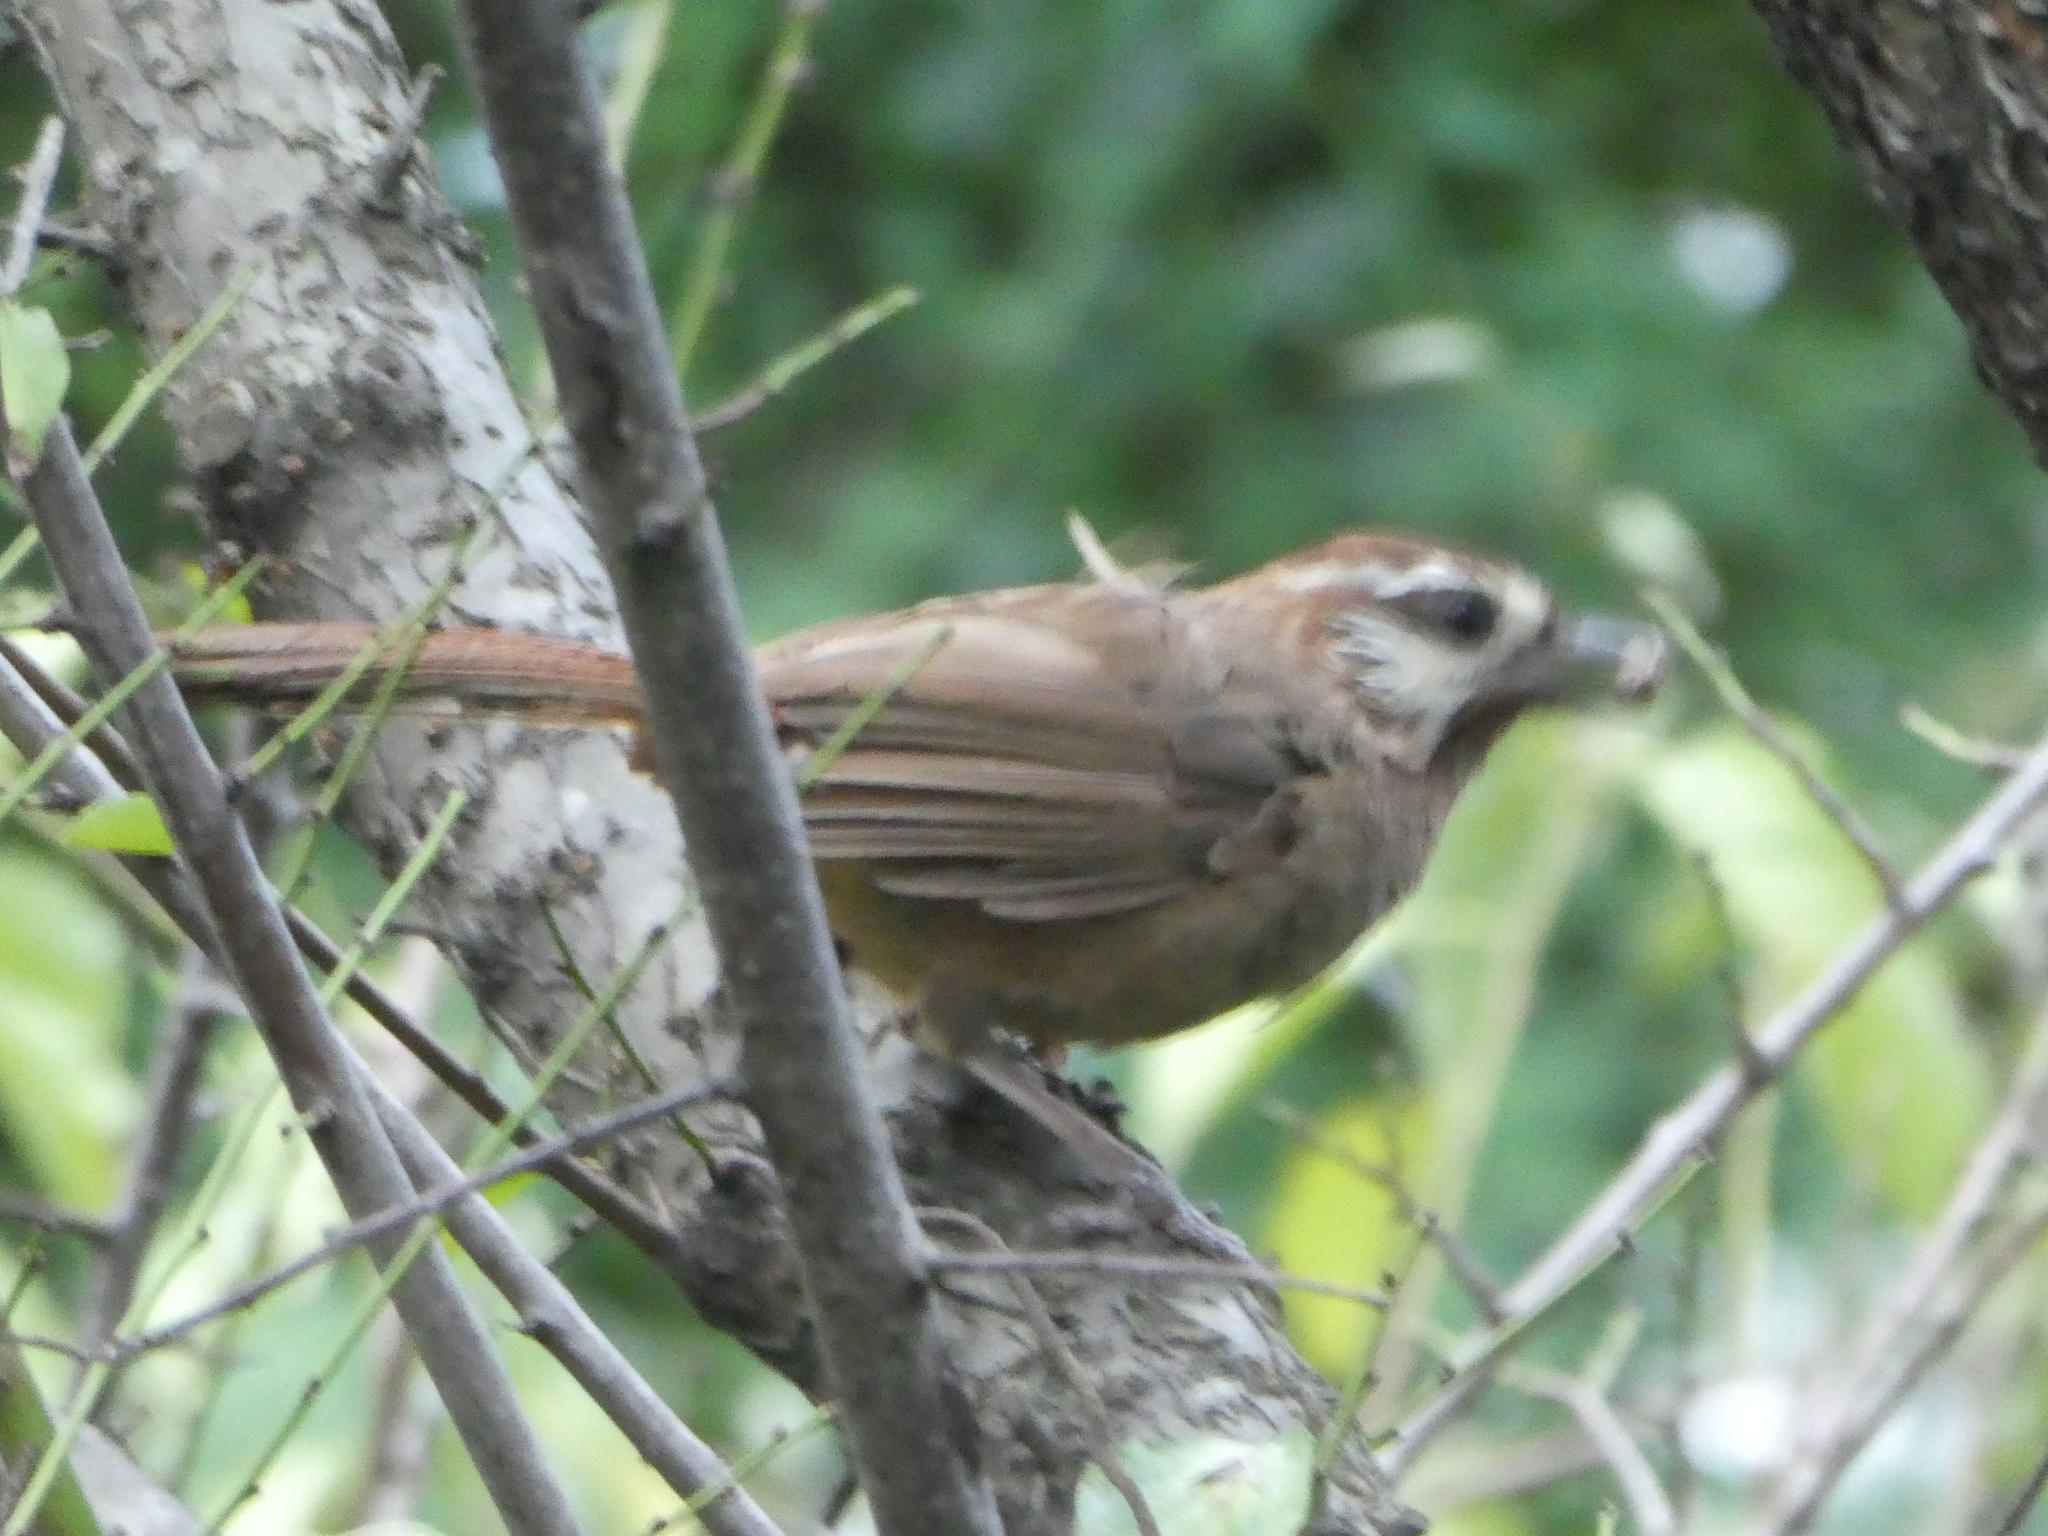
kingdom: Animalia
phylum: Chordata
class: Aves
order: Passeriformes
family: Leiothrichidae
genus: Pterorhinus
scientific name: Pterorhinus sannio
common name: White-browed laughingthrush
